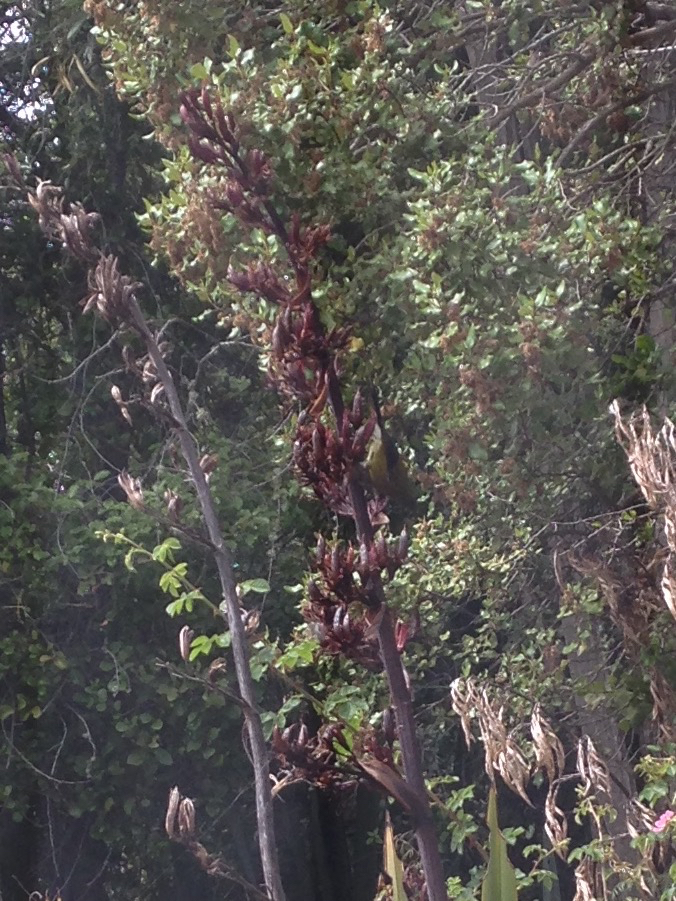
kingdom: Animalia
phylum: Chordata
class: Aves
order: Passeriformes
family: Meliphagidae
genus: Anthornis
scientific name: Anthornis melanura
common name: New zealand bellbird
